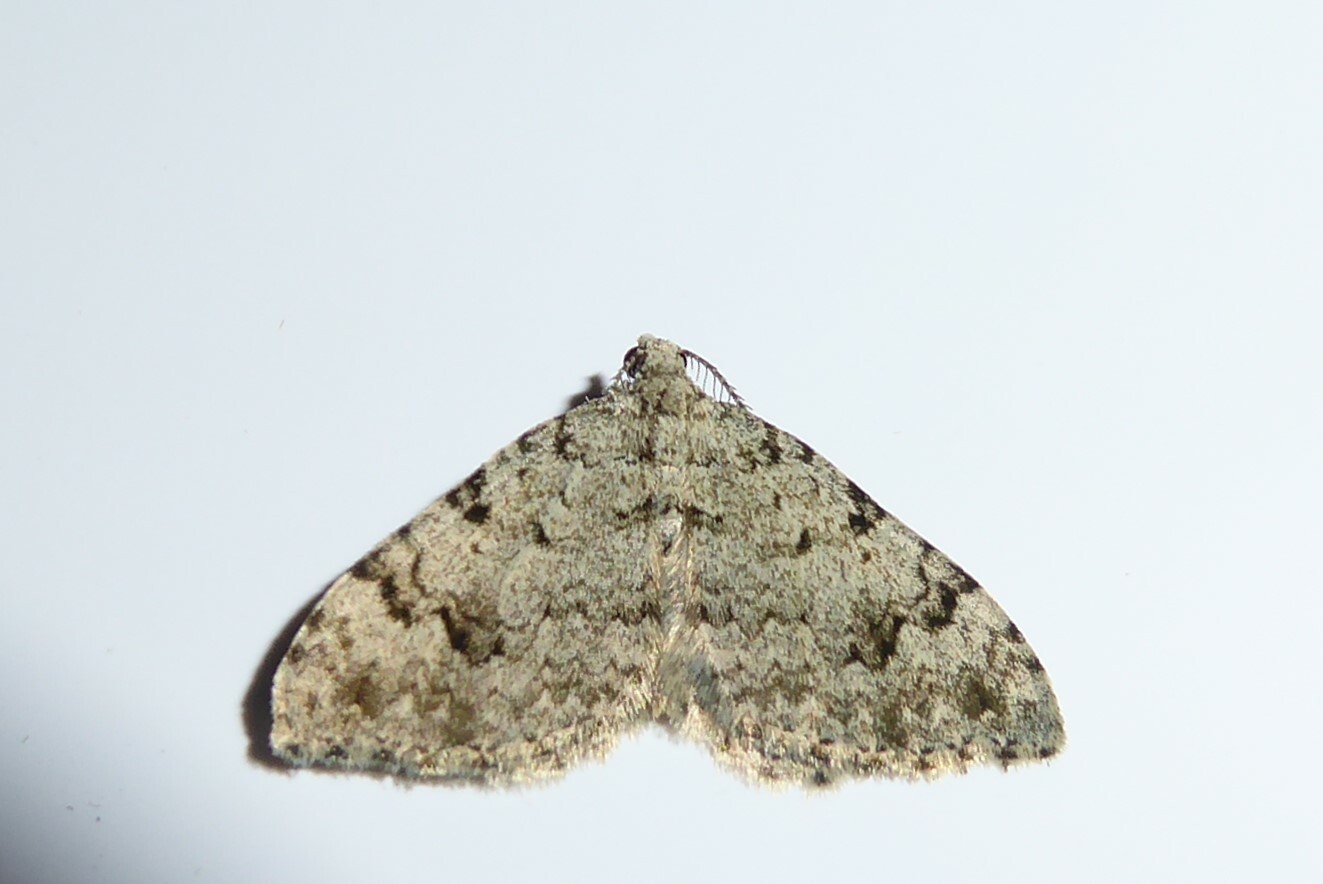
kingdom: Animalia
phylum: Arthropoda
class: Insecta
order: Lepidoptera
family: Geometridae
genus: Helastia
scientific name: Helastia cinerearia
